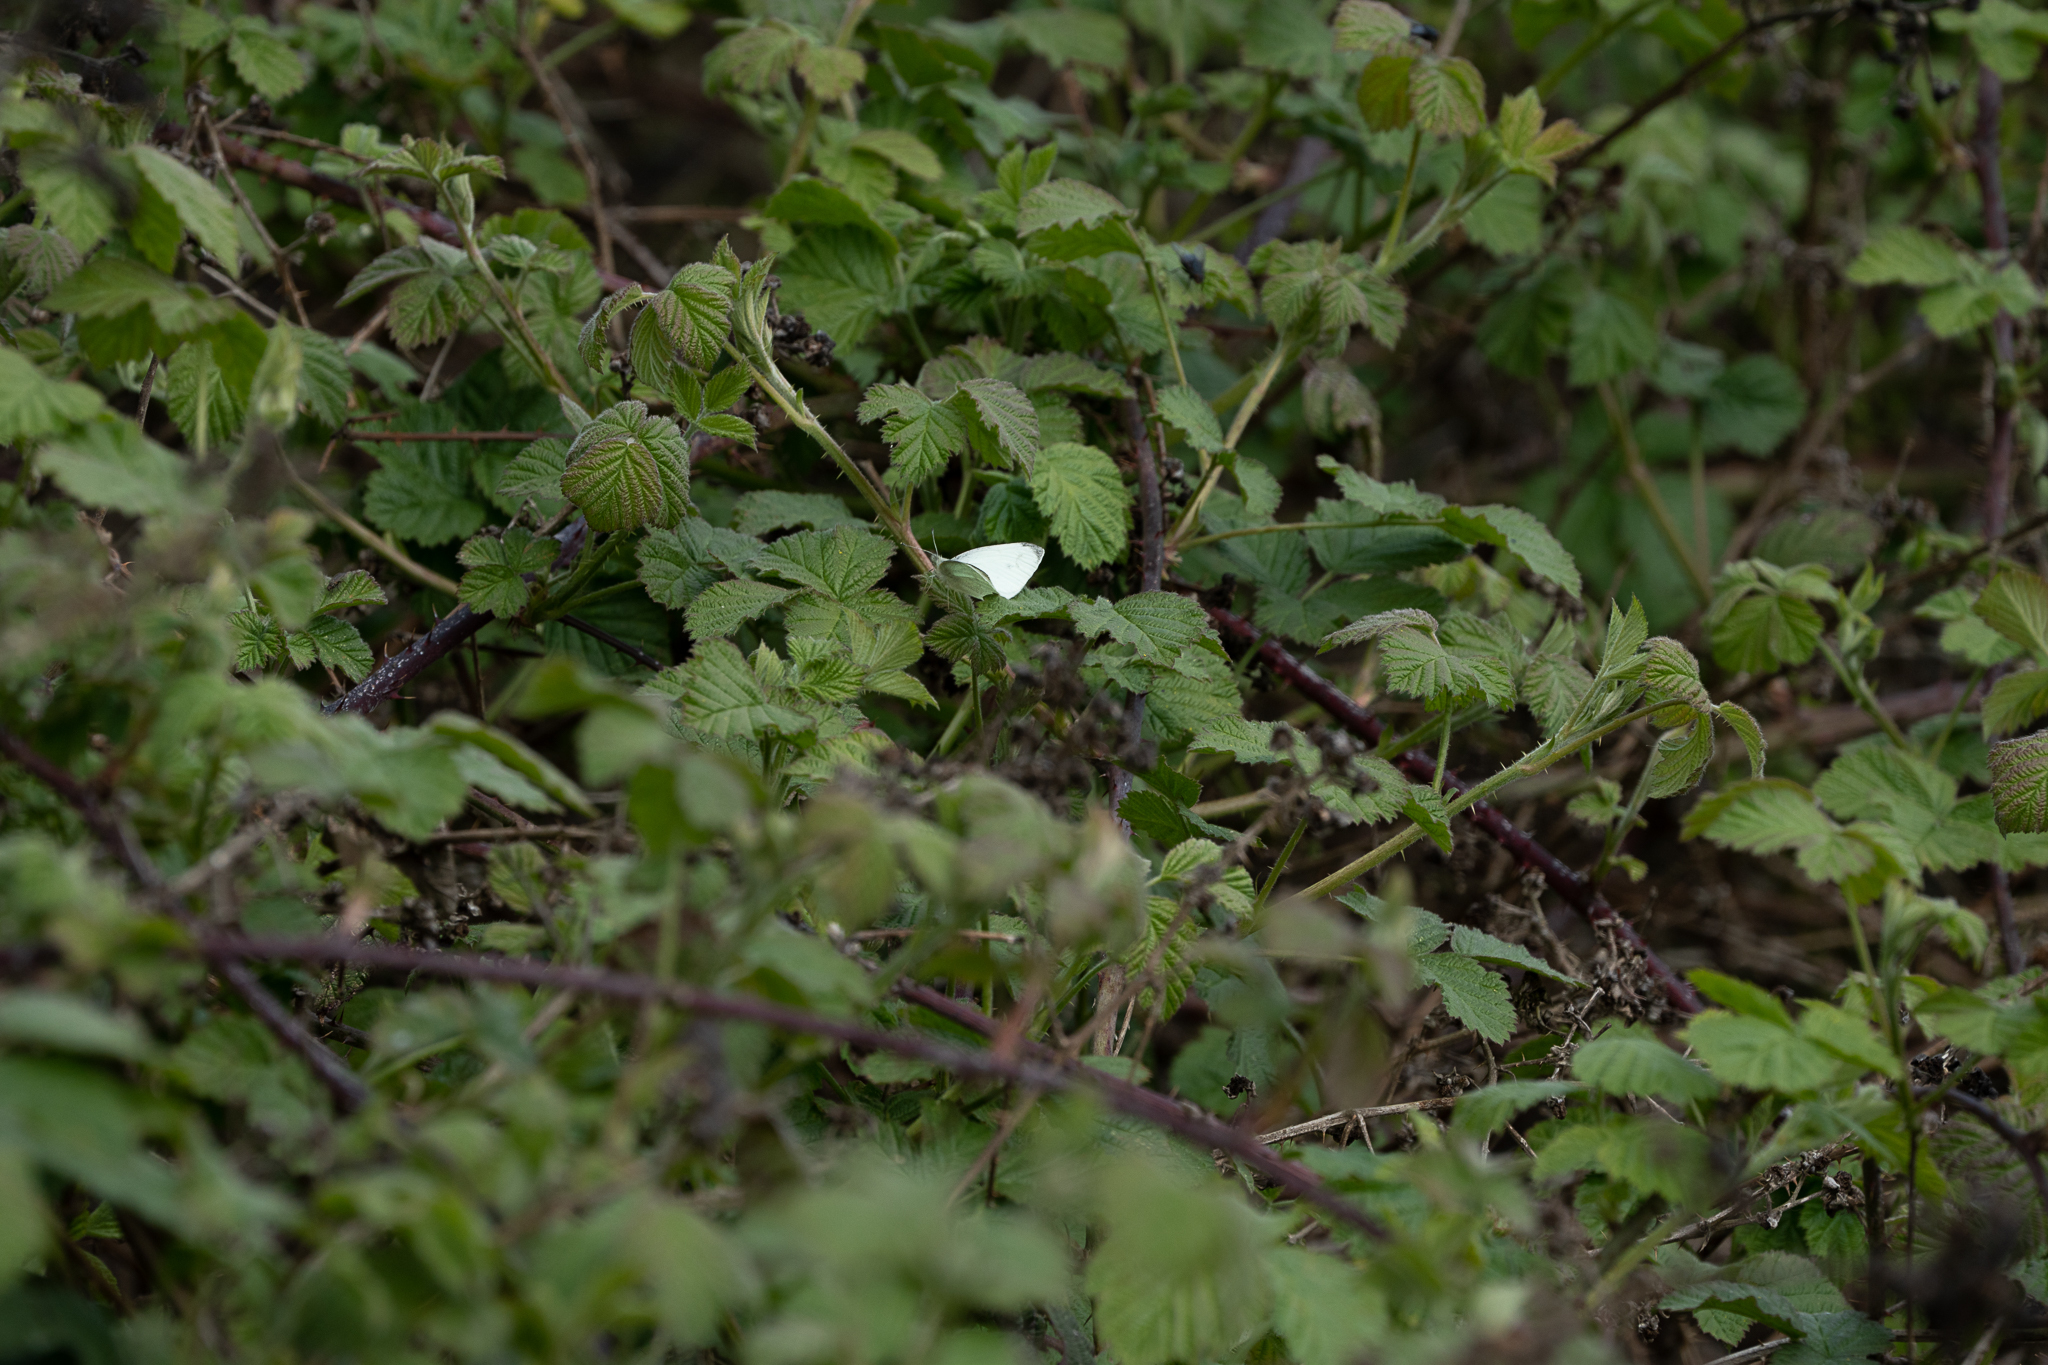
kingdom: Animalia
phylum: Arthropoda
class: Insecta
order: Lepidoptera
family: Pieridae
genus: Pieris
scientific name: Pieris rapae
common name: Small white
